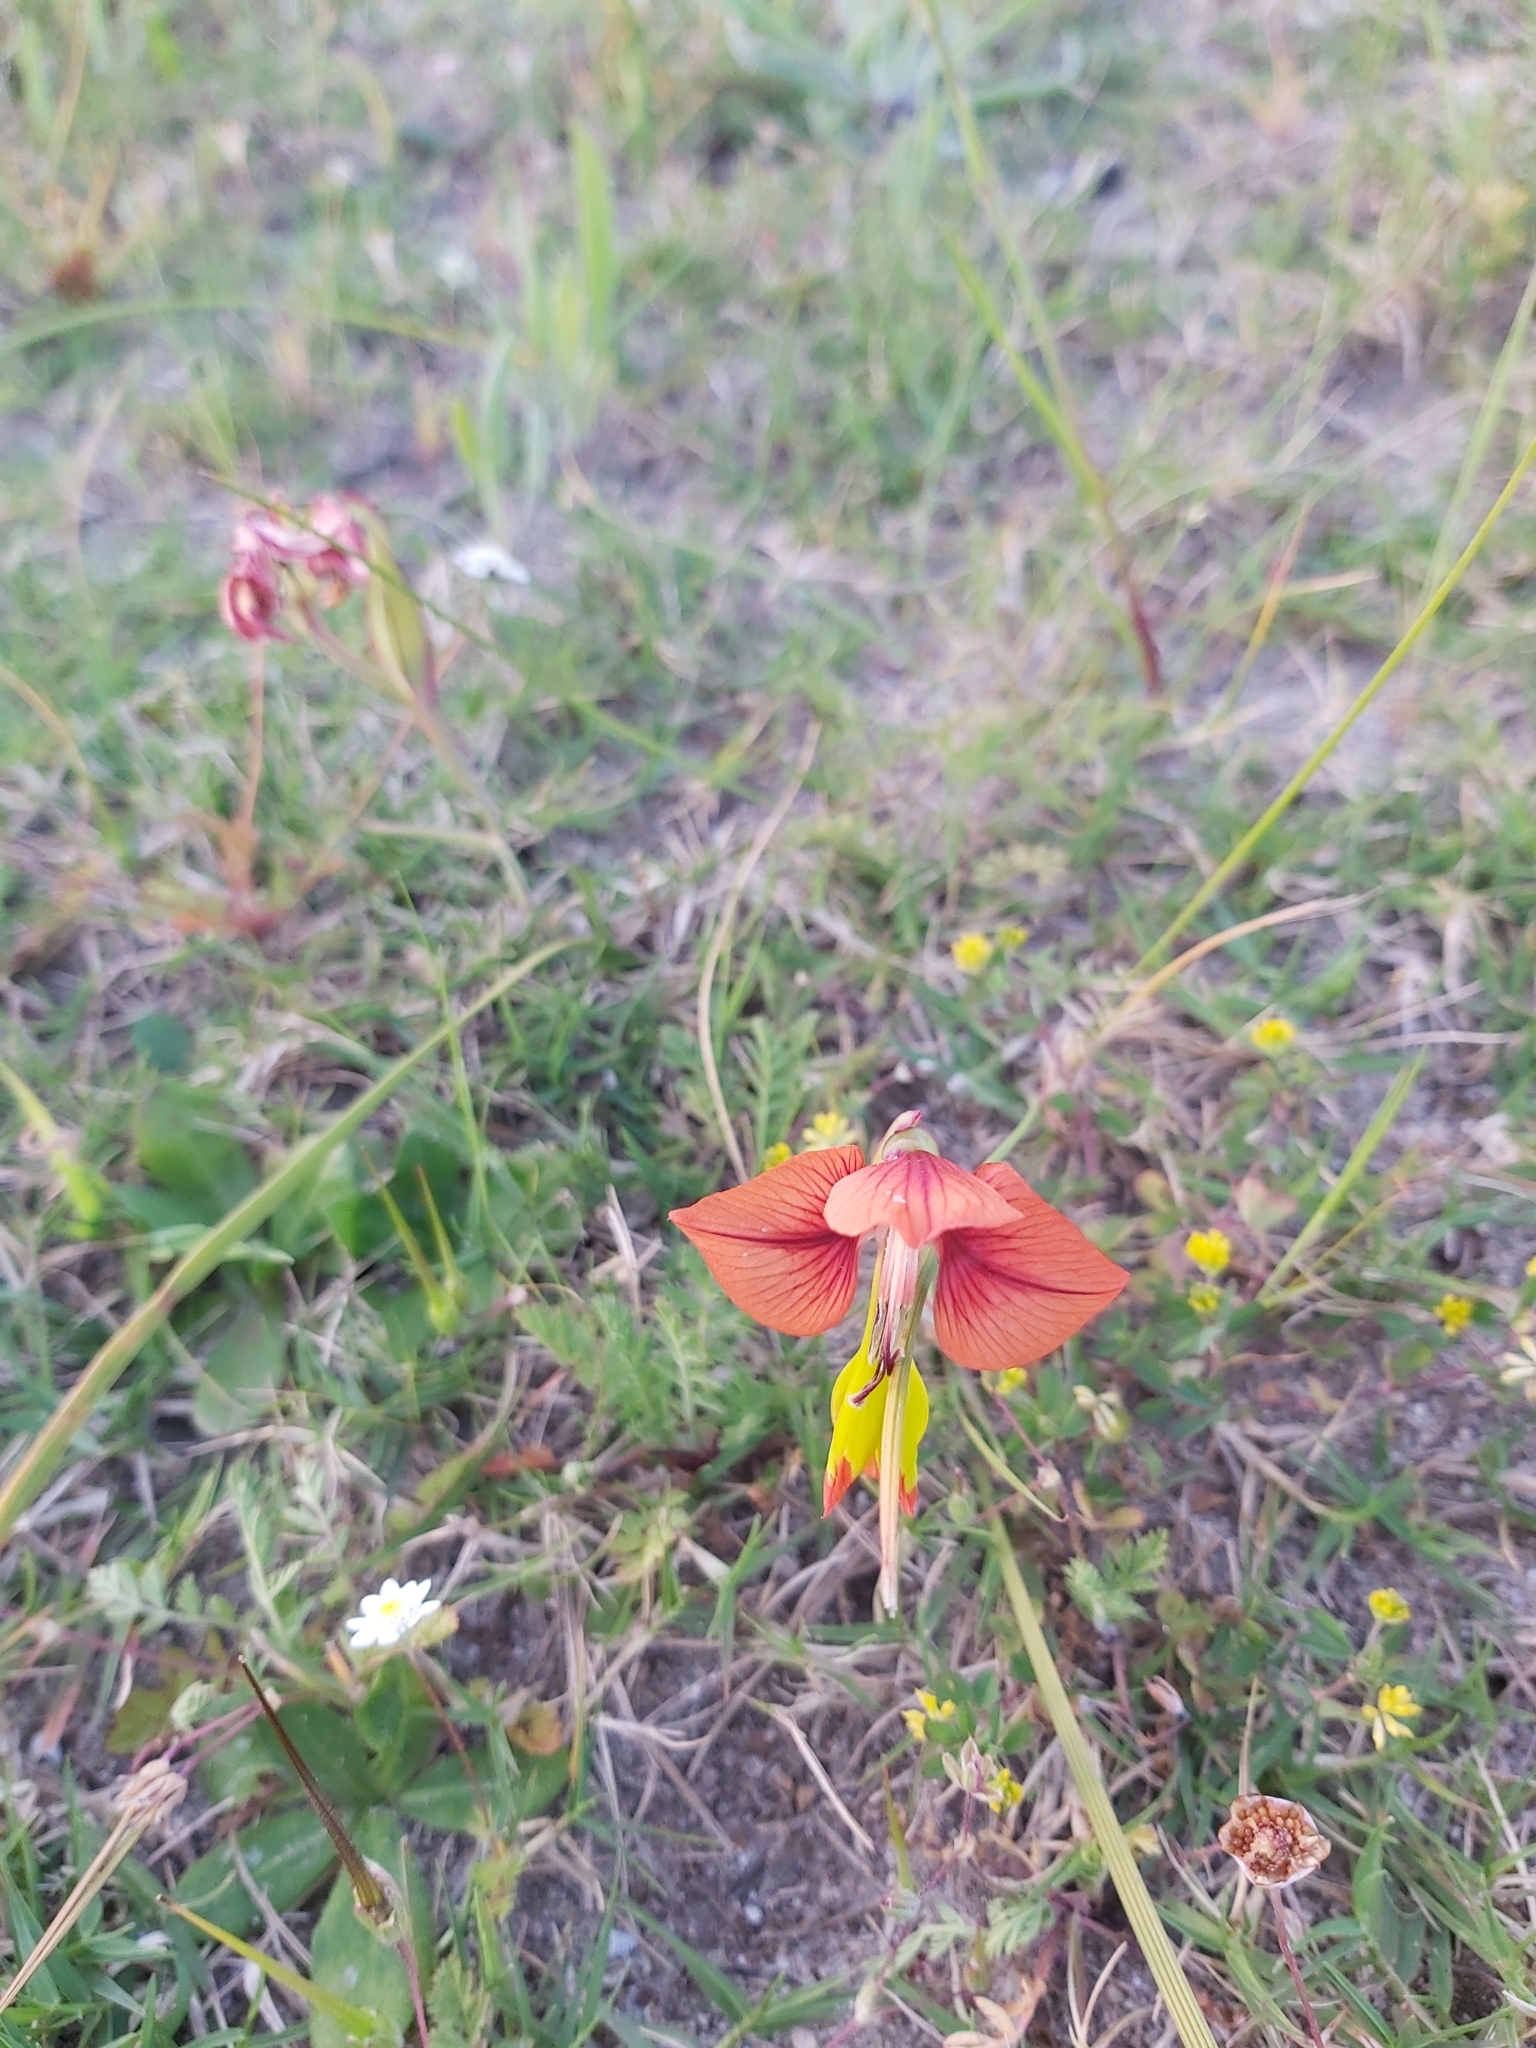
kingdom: Plantae
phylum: Tracheophyta
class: Liliopsida
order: Asparagales
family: Iridaceae
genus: Gladiolus
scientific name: Gladiolus alatus
